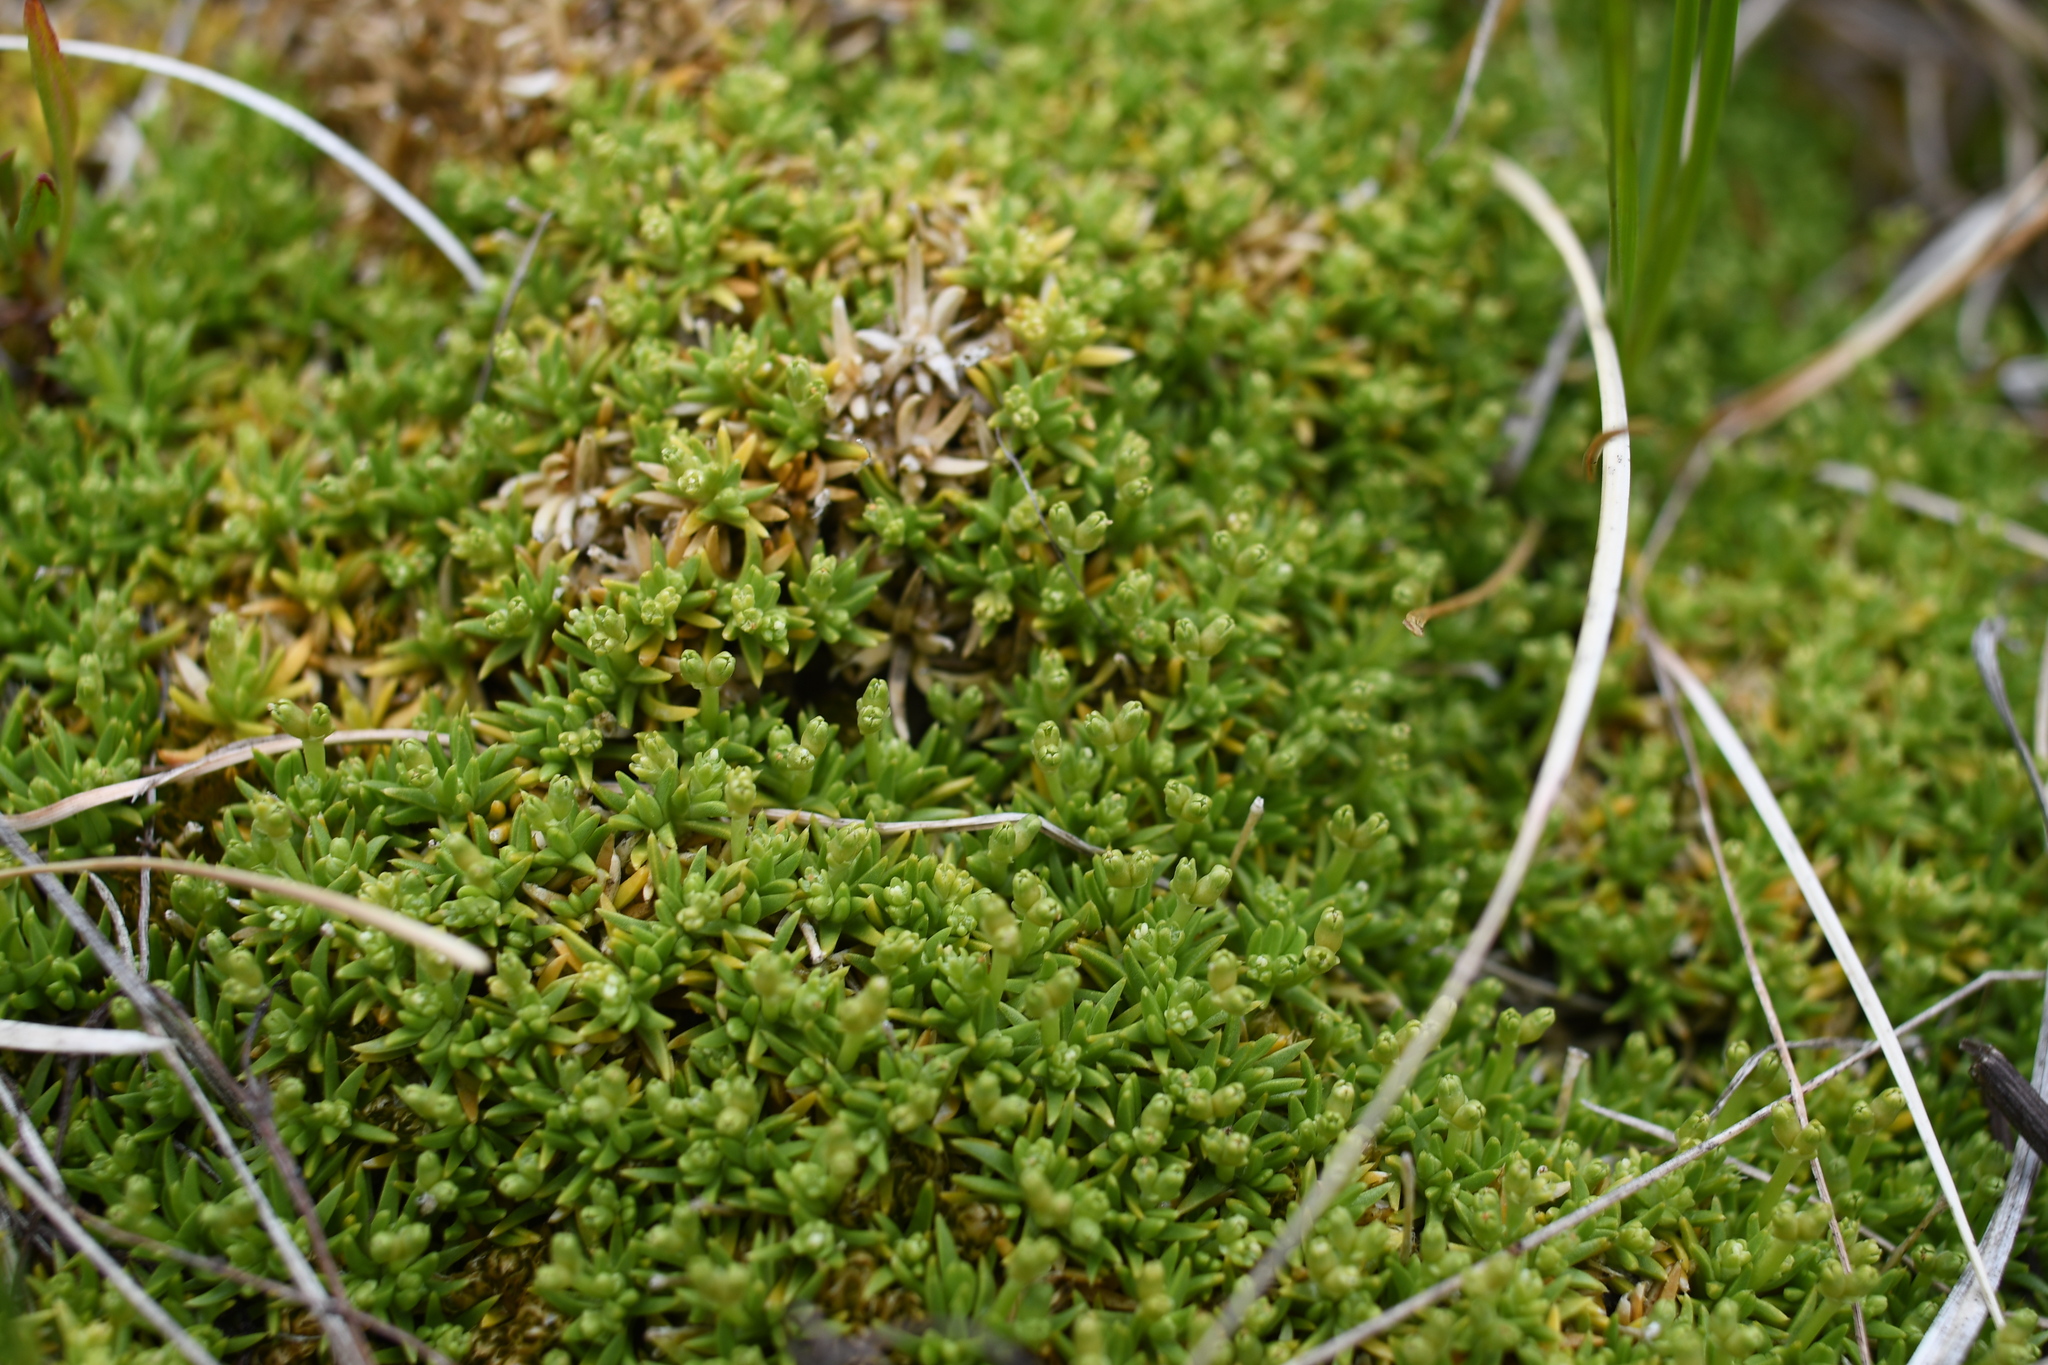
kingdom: Plantae
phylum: Tracheophyta
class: Magnoliopsida
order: Caryophyllales
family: Caryophyllaceae
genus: Scleranthus
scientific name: Scleranthus biflorus
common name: Two-flower knawel
